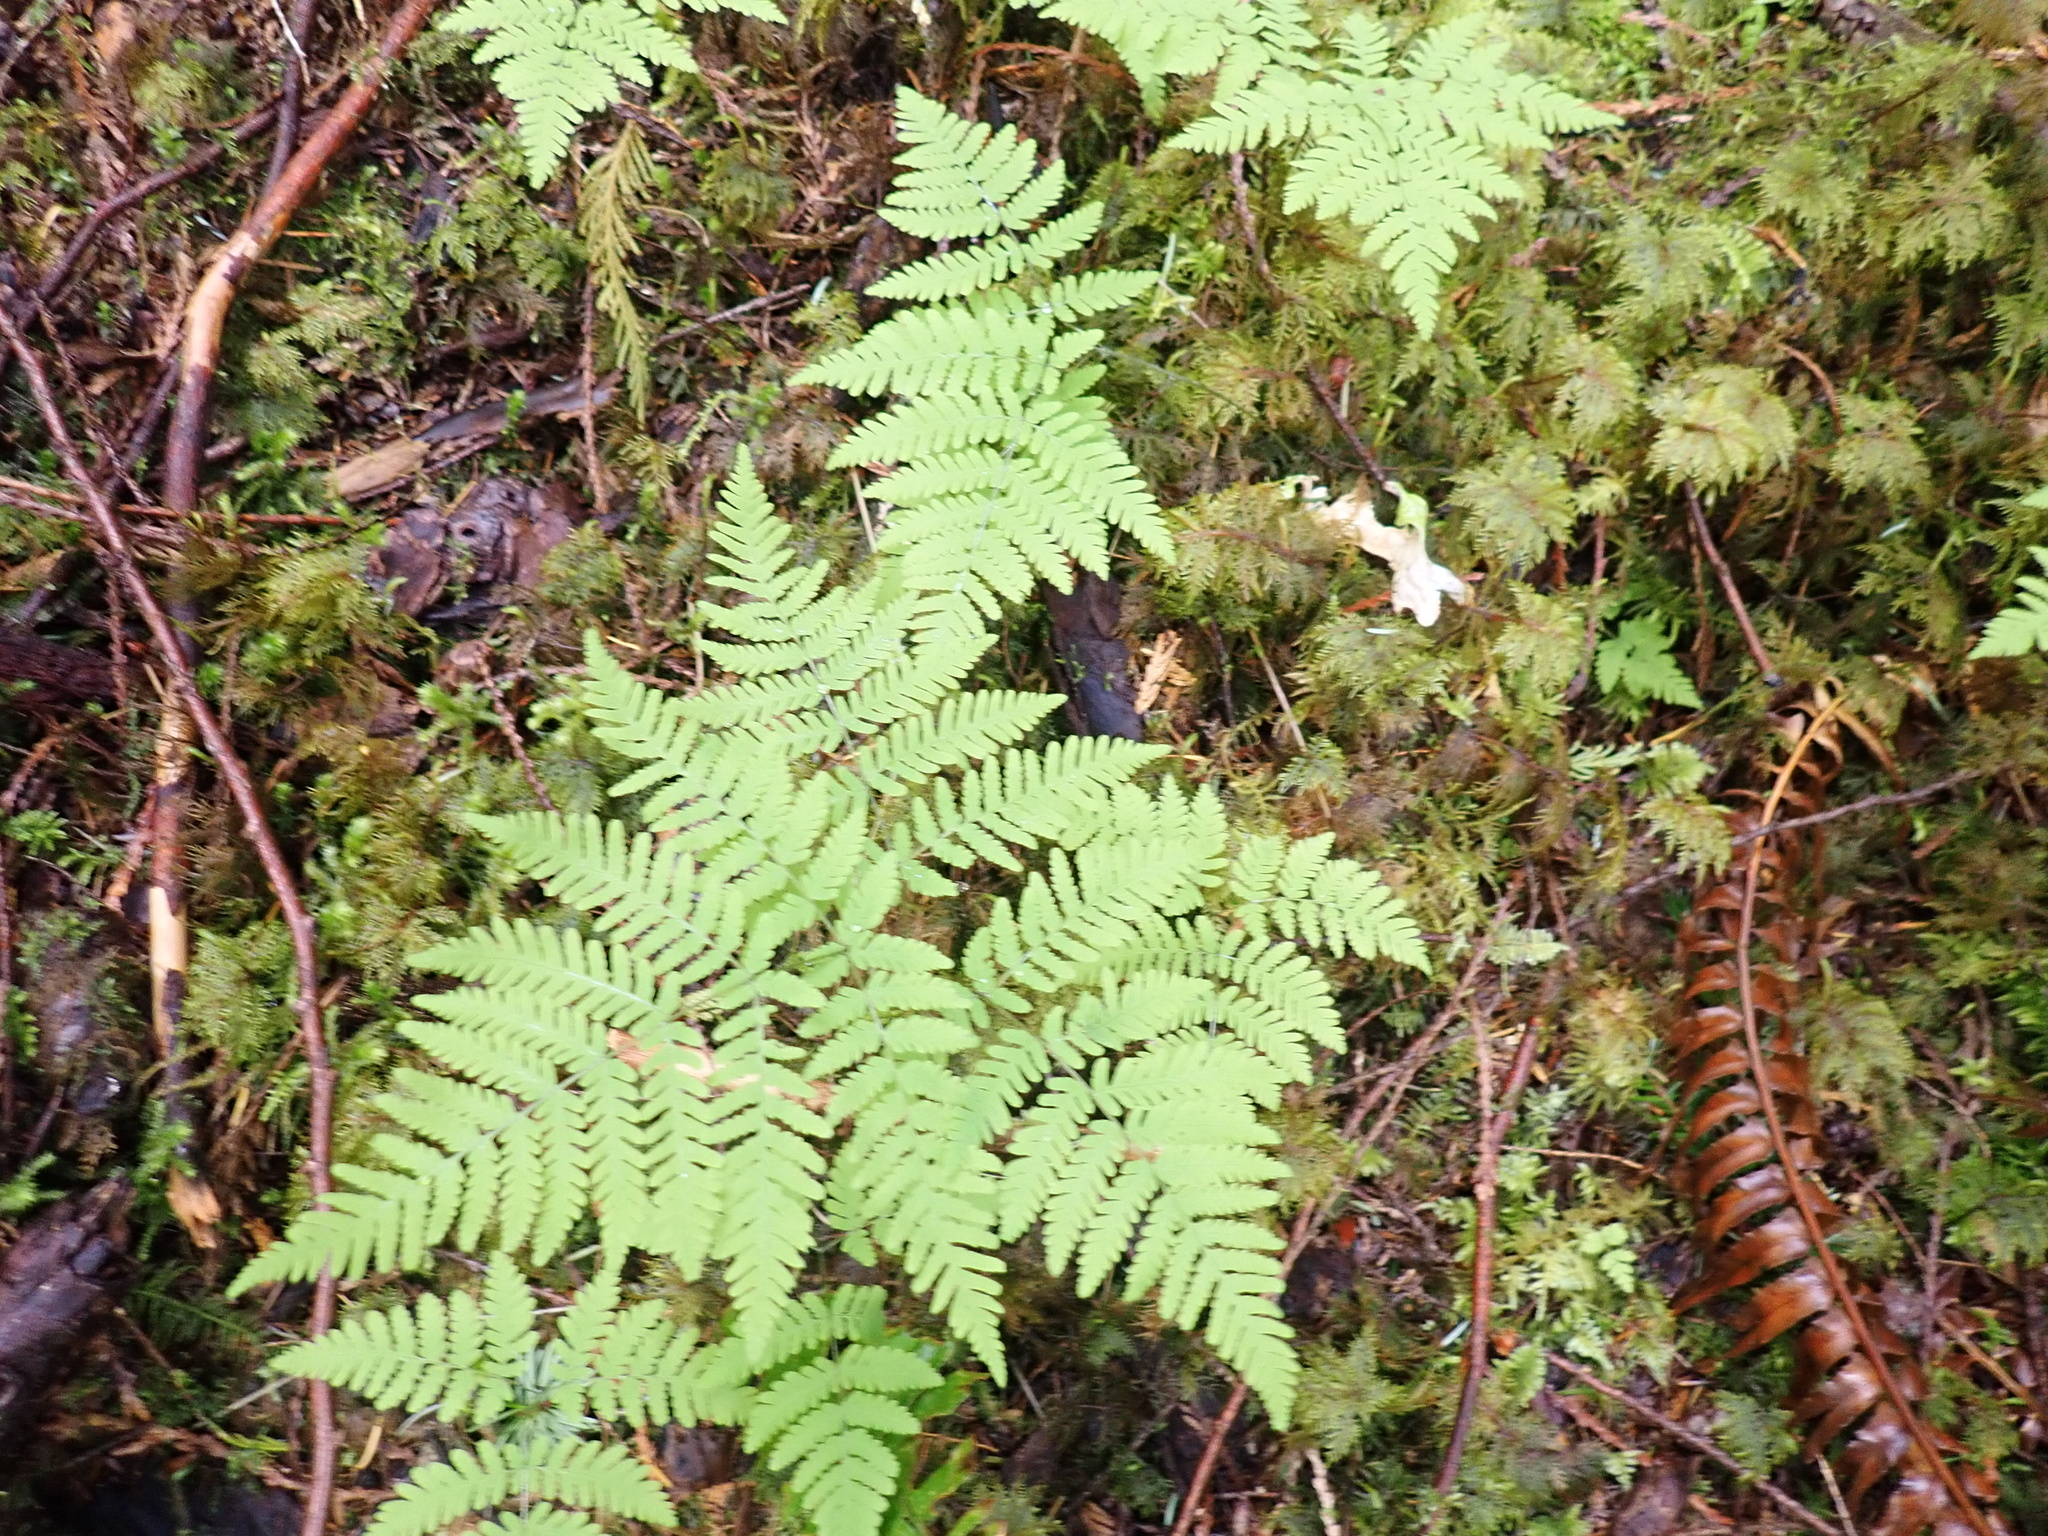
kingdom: Plantae
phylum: Tracheophyta
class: Polypodiopsida
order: Polypodiales
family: Cystopteridaceae
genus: Gymnocarpium
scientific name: Gymnocarpium disjunctum
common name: Western oak fern
